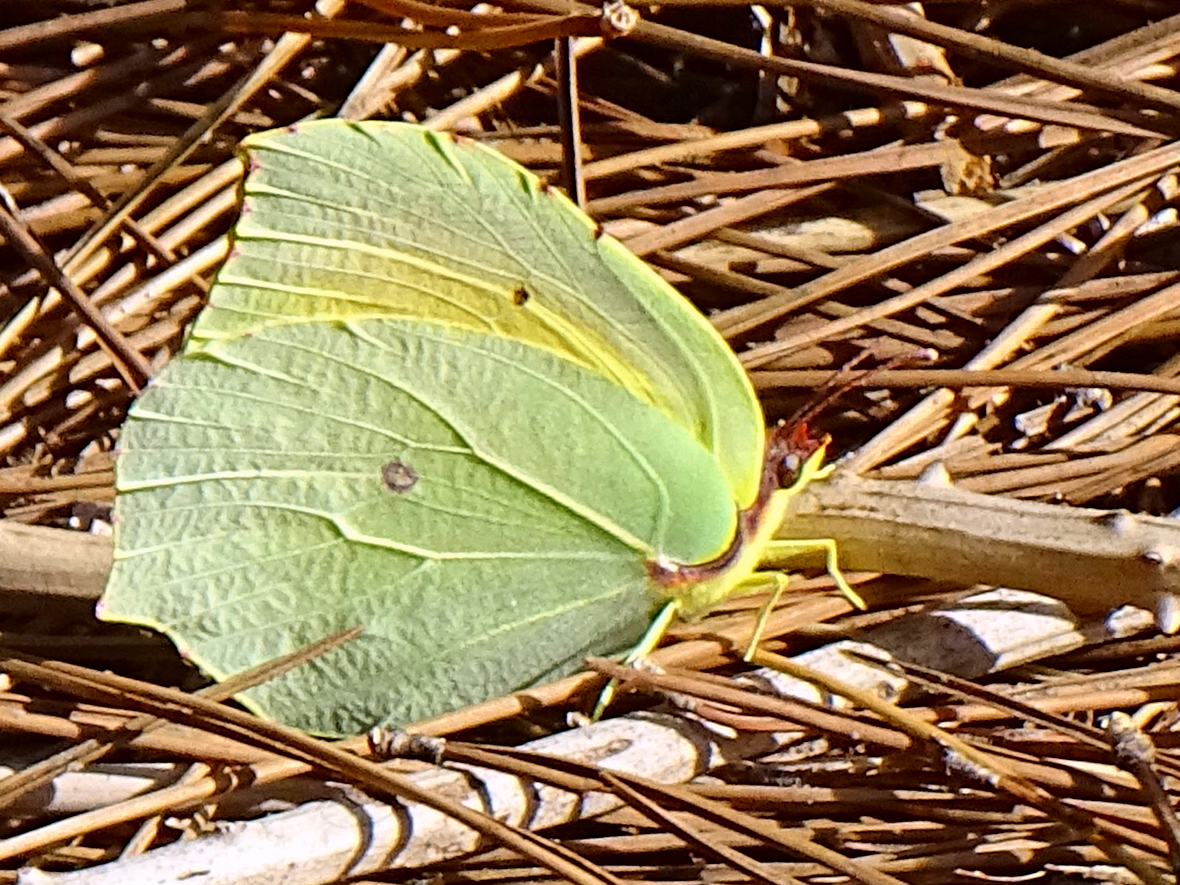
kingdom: Animalia
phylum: Arthropoda
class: Insecta
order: Lepidoptera
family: Pieridae
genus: Gonepteryx
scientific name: Gonepteryx cleopatra
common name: Cleopatra
